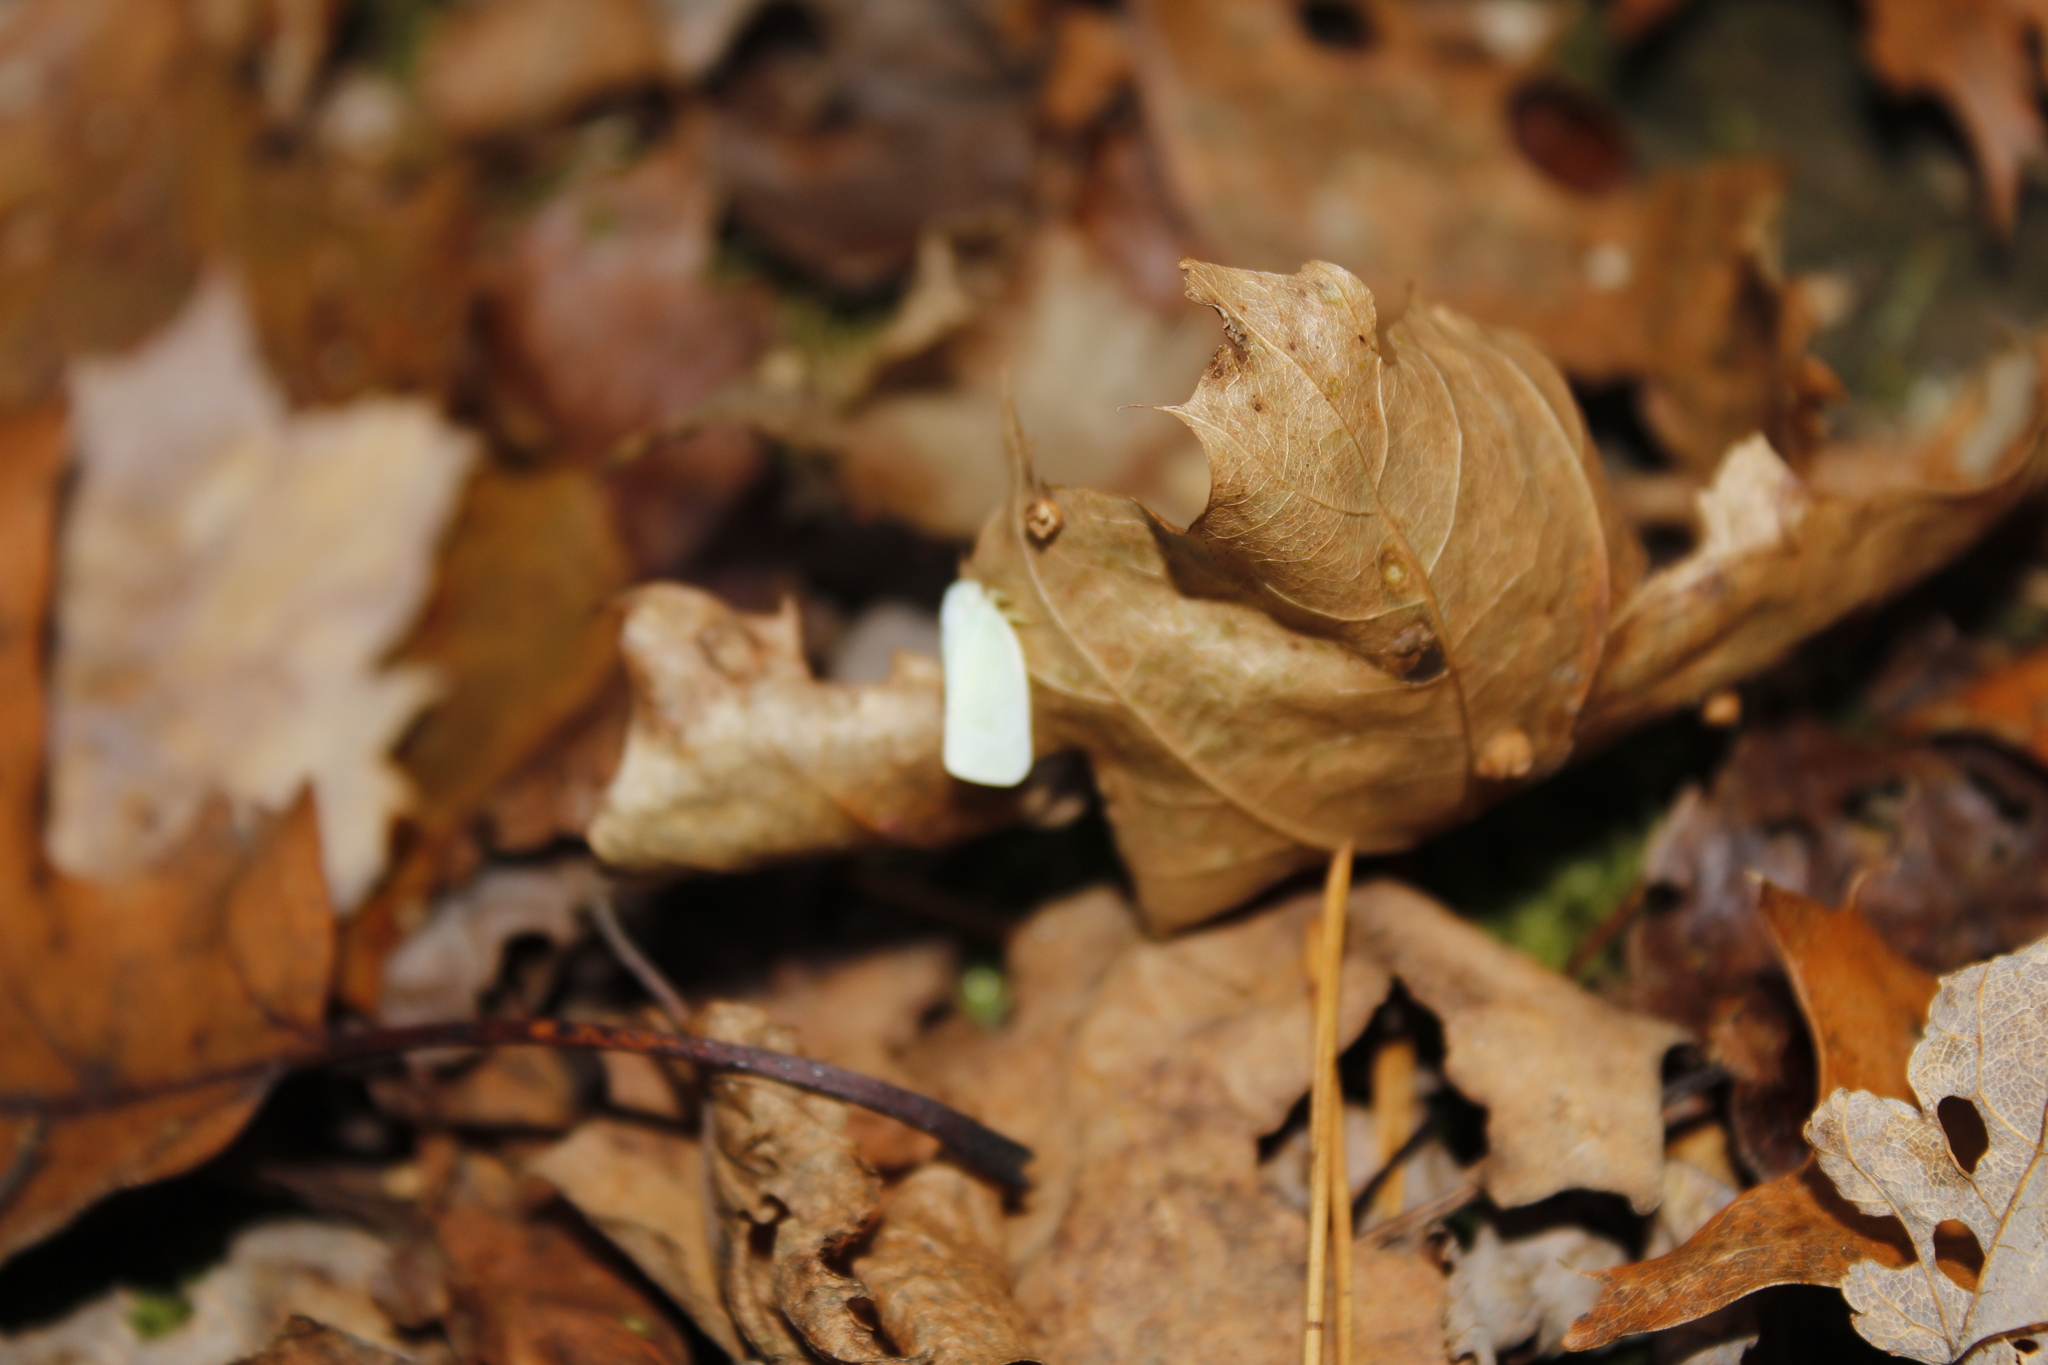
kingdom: Animalia
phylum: Arthropoda
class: Insecta
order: Hemiptera
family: Flatidae
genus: Flatormenis
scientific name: Flatormenis proxima
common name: Northern flatid planthopper
